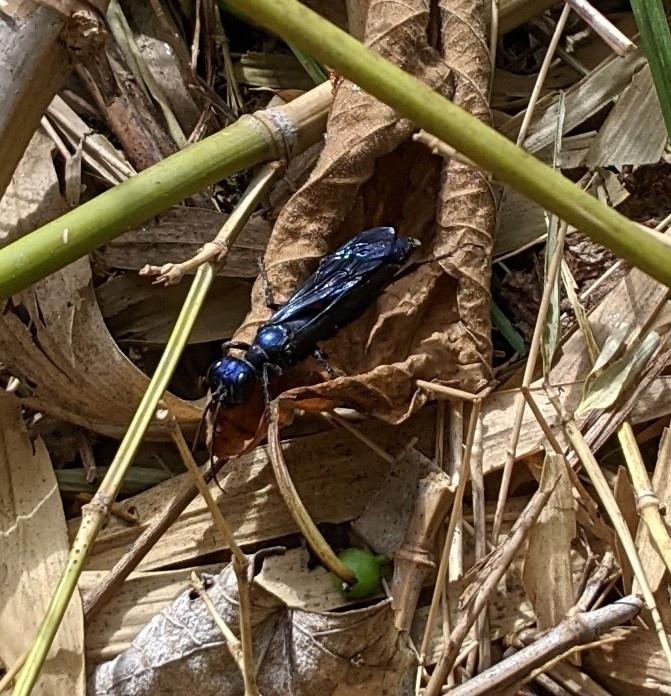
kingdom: Animalia
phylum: Arthropoda
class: Insecta
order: Hymenoptera
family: Sphecidae
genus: Chlorion
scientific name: Chlorion aerarium
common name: Steel-blue cricket hunter
